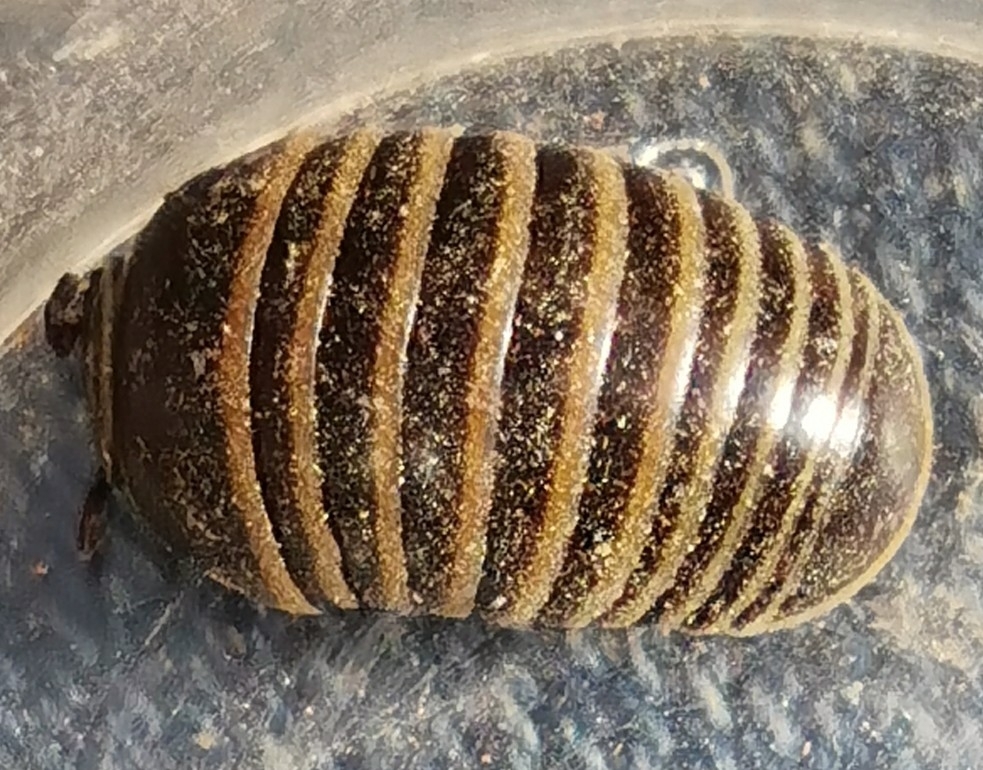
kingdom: Animalia
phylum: Arthropoda
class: Diplopoda
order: Glomerida
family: Glomeridae
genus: Glomeris
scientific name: Glomeris marginata
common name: Bordered pill millipede
